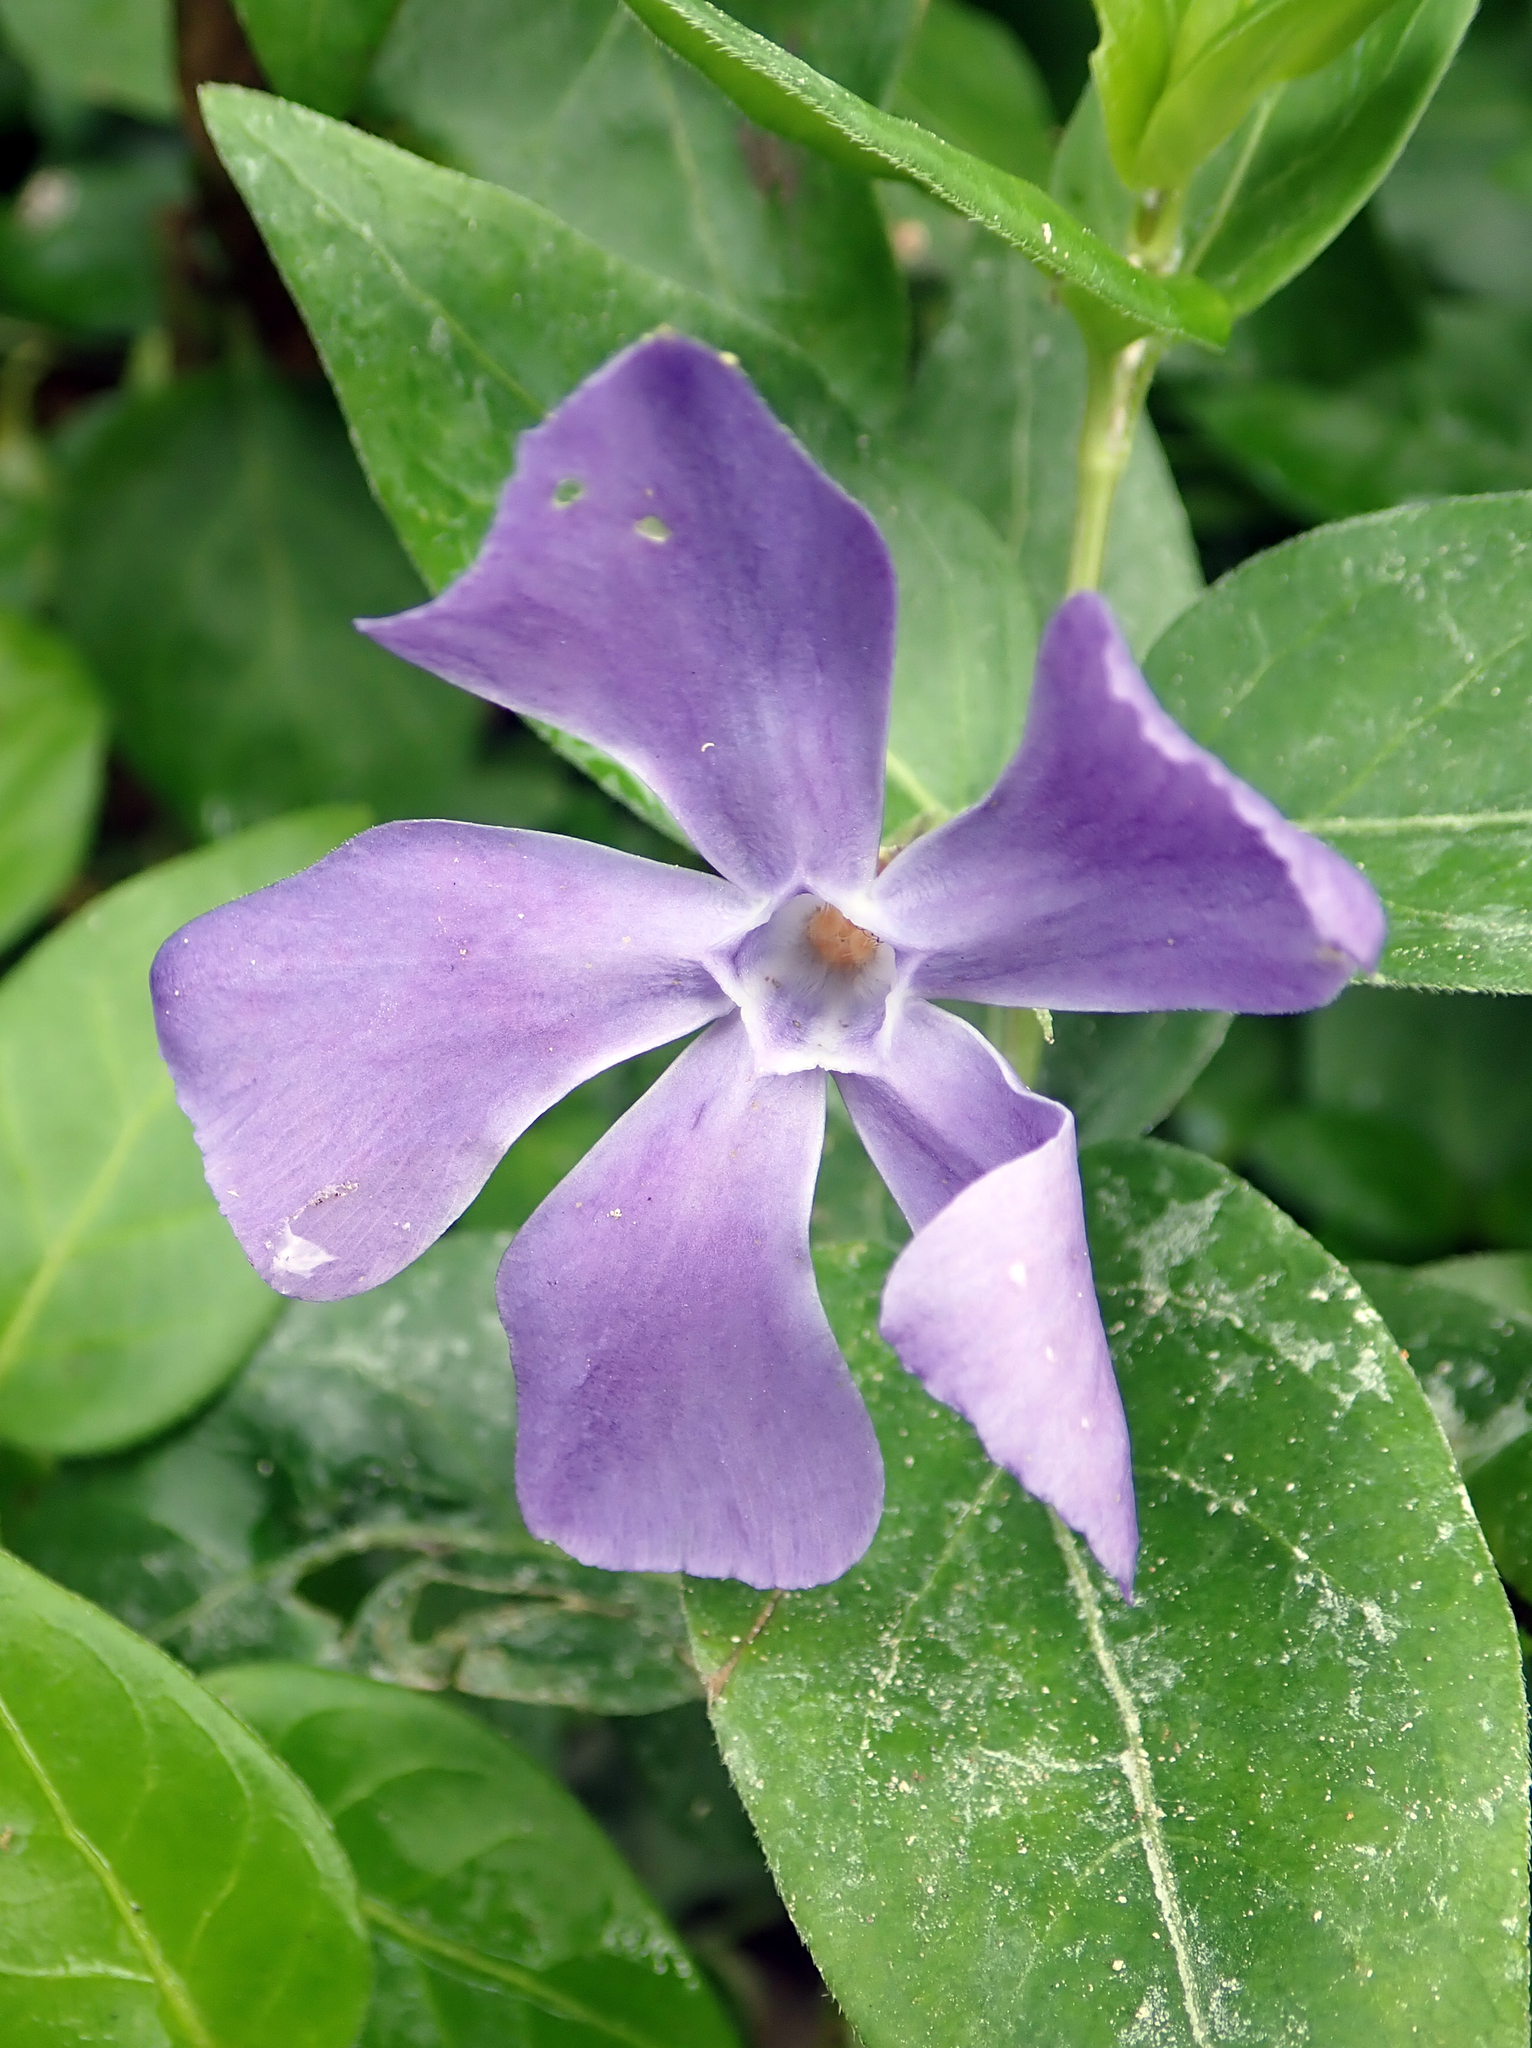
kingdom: Plantae
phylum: Tracheophyta
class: Magnoliopsida
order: Gentianales
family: Apocynaceae
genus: Vinca
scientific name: Vinca major
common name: Greater periwinkle
